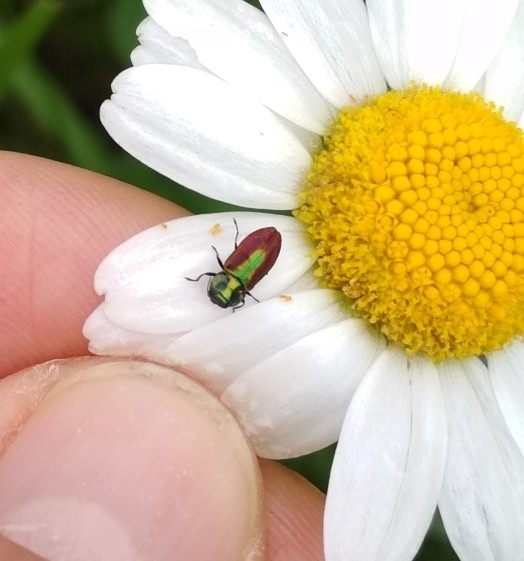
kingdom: Animalia
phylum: Arthropoda
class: Insecta
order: Coleoptera
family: Buprestidae
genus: Anthaxia
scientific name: Anthaxia fulgurans
